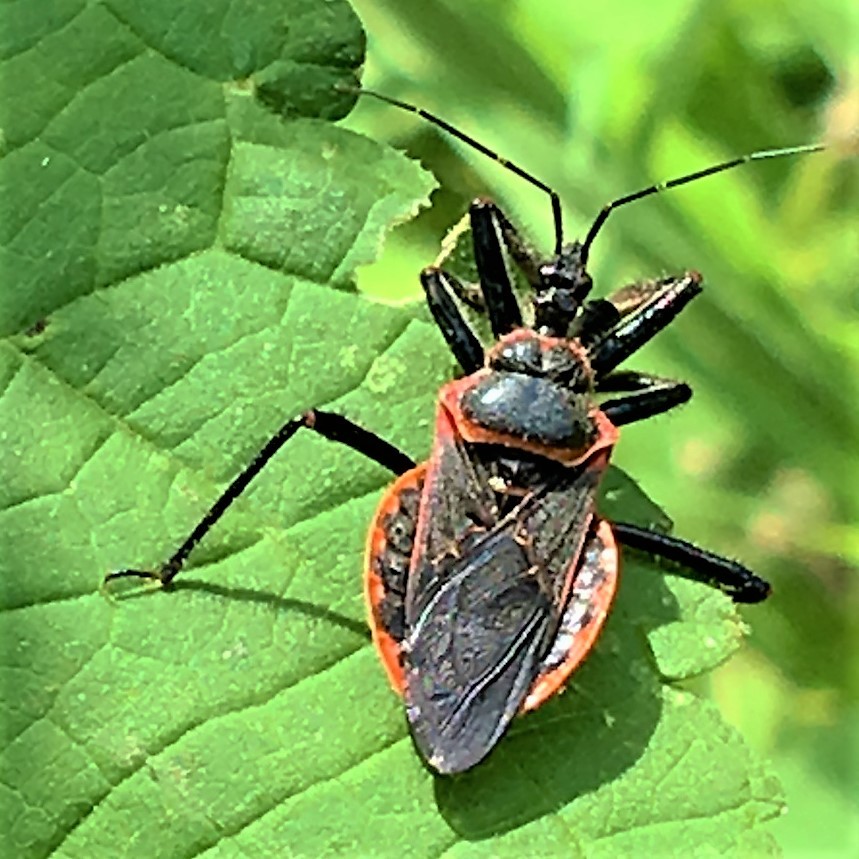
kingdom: Animalia
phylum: Arthropoda
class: Insecta
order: Hemiptera
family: Reduviidae
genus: Apiomerus
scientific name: Apiomerus crassipes
